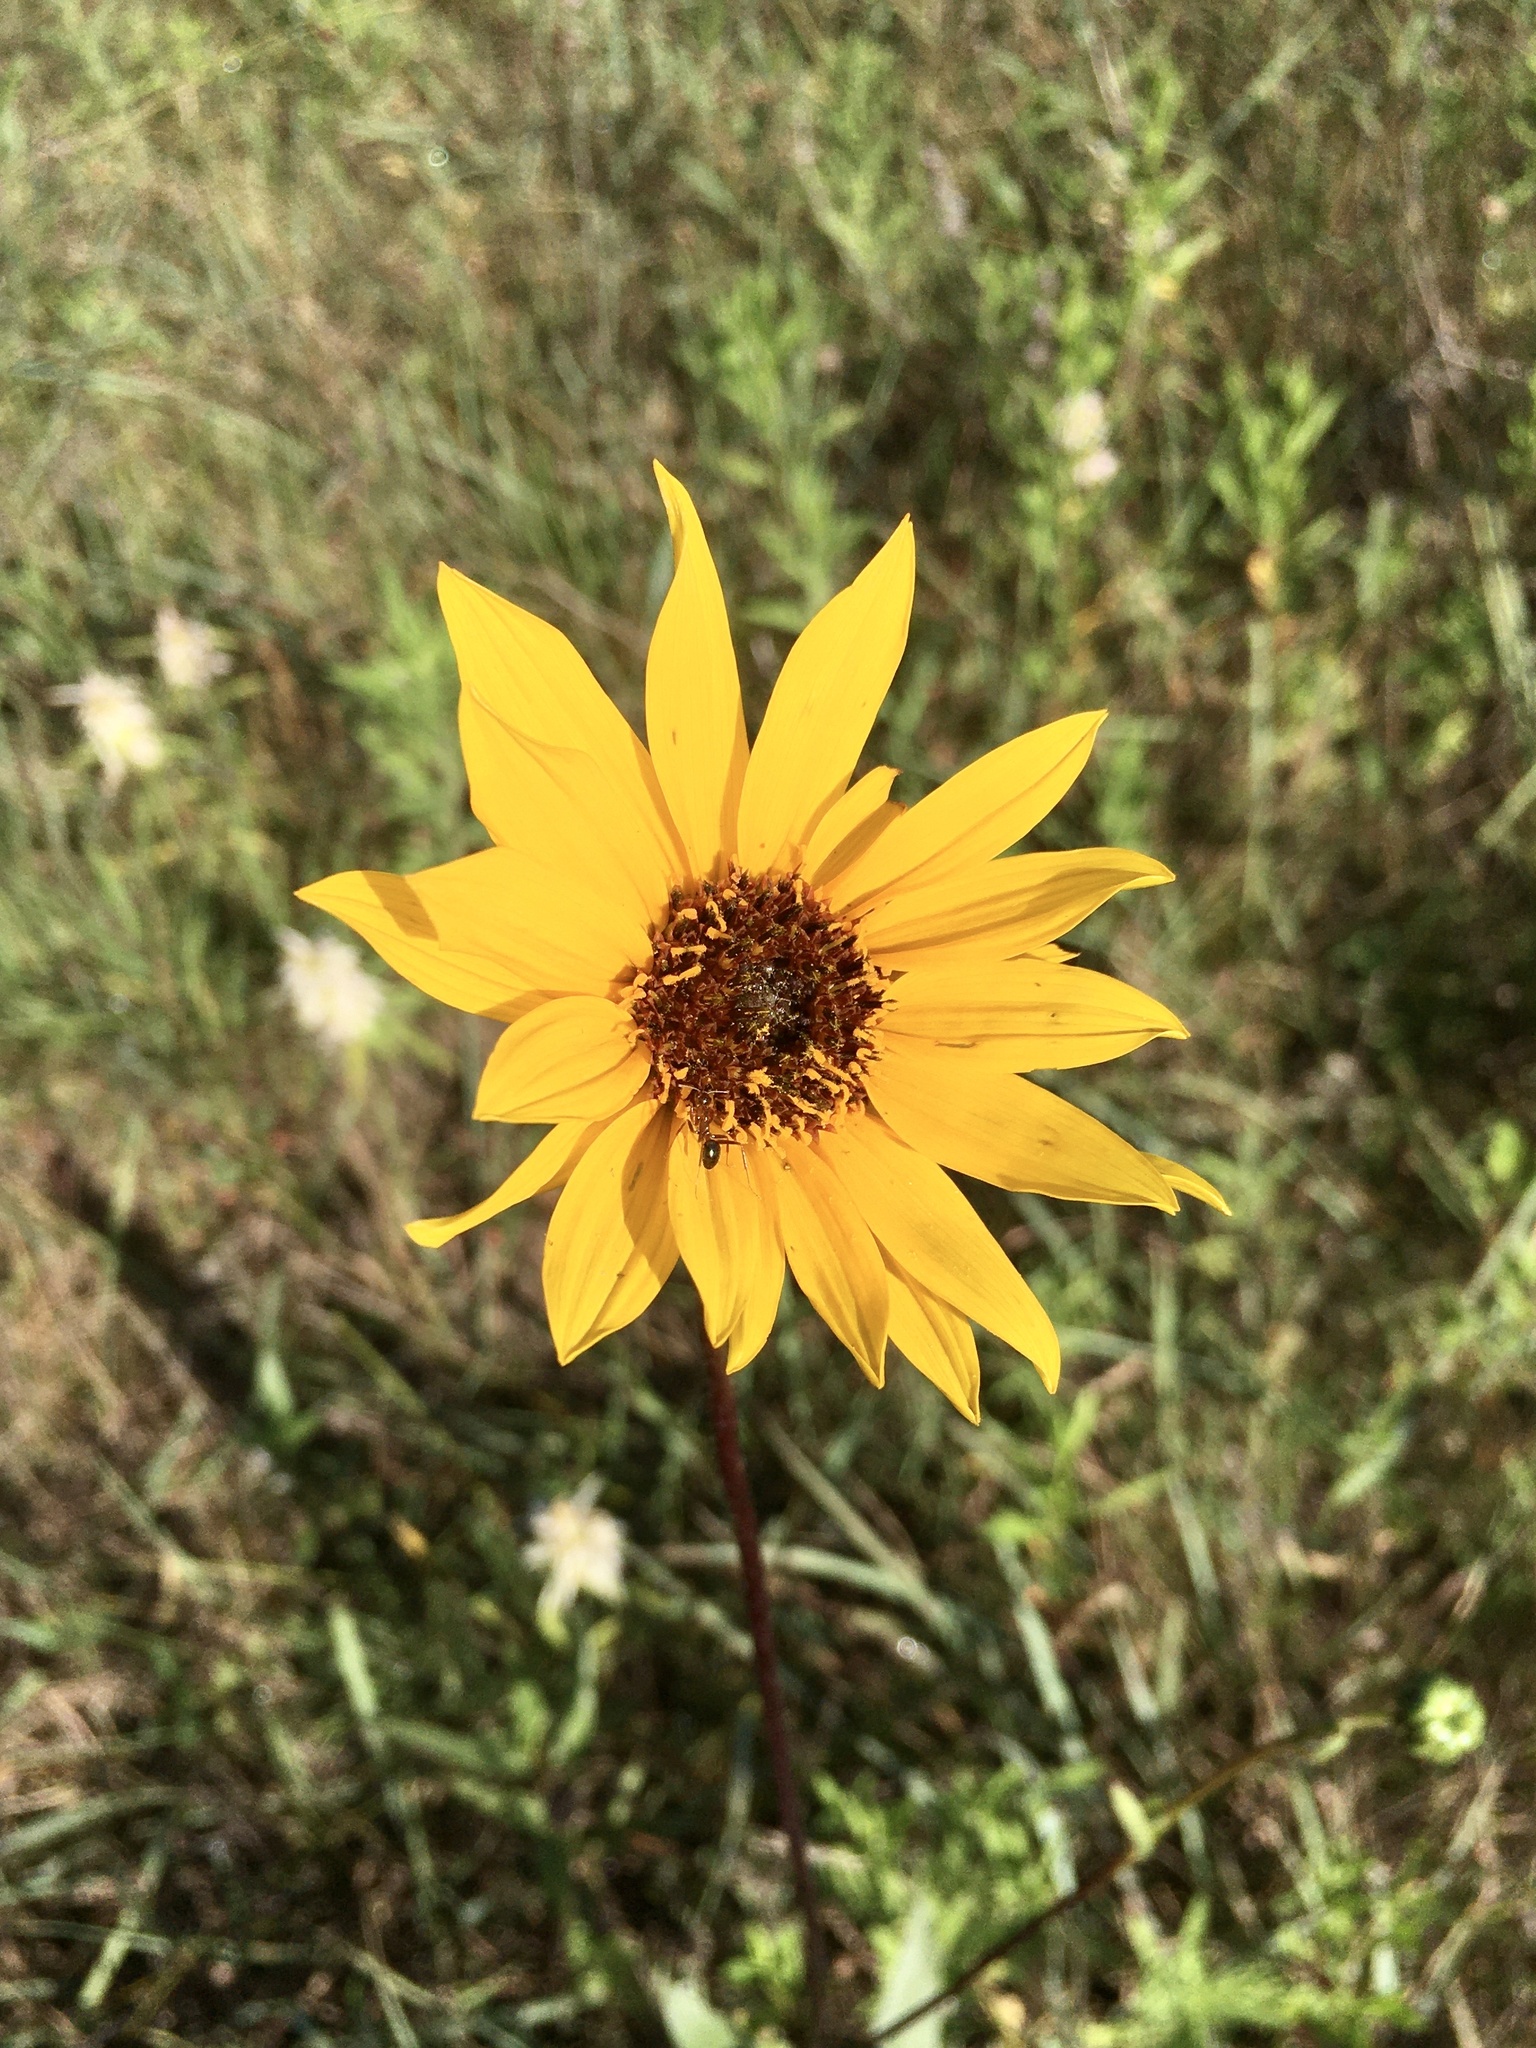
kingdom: Plantae
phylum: Tracheophyta
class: Magnoliopsida
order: Asterales
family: Asteraceae
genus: Helianthus
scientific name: Helianthus pauciflorus
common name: Stiff sunflower
